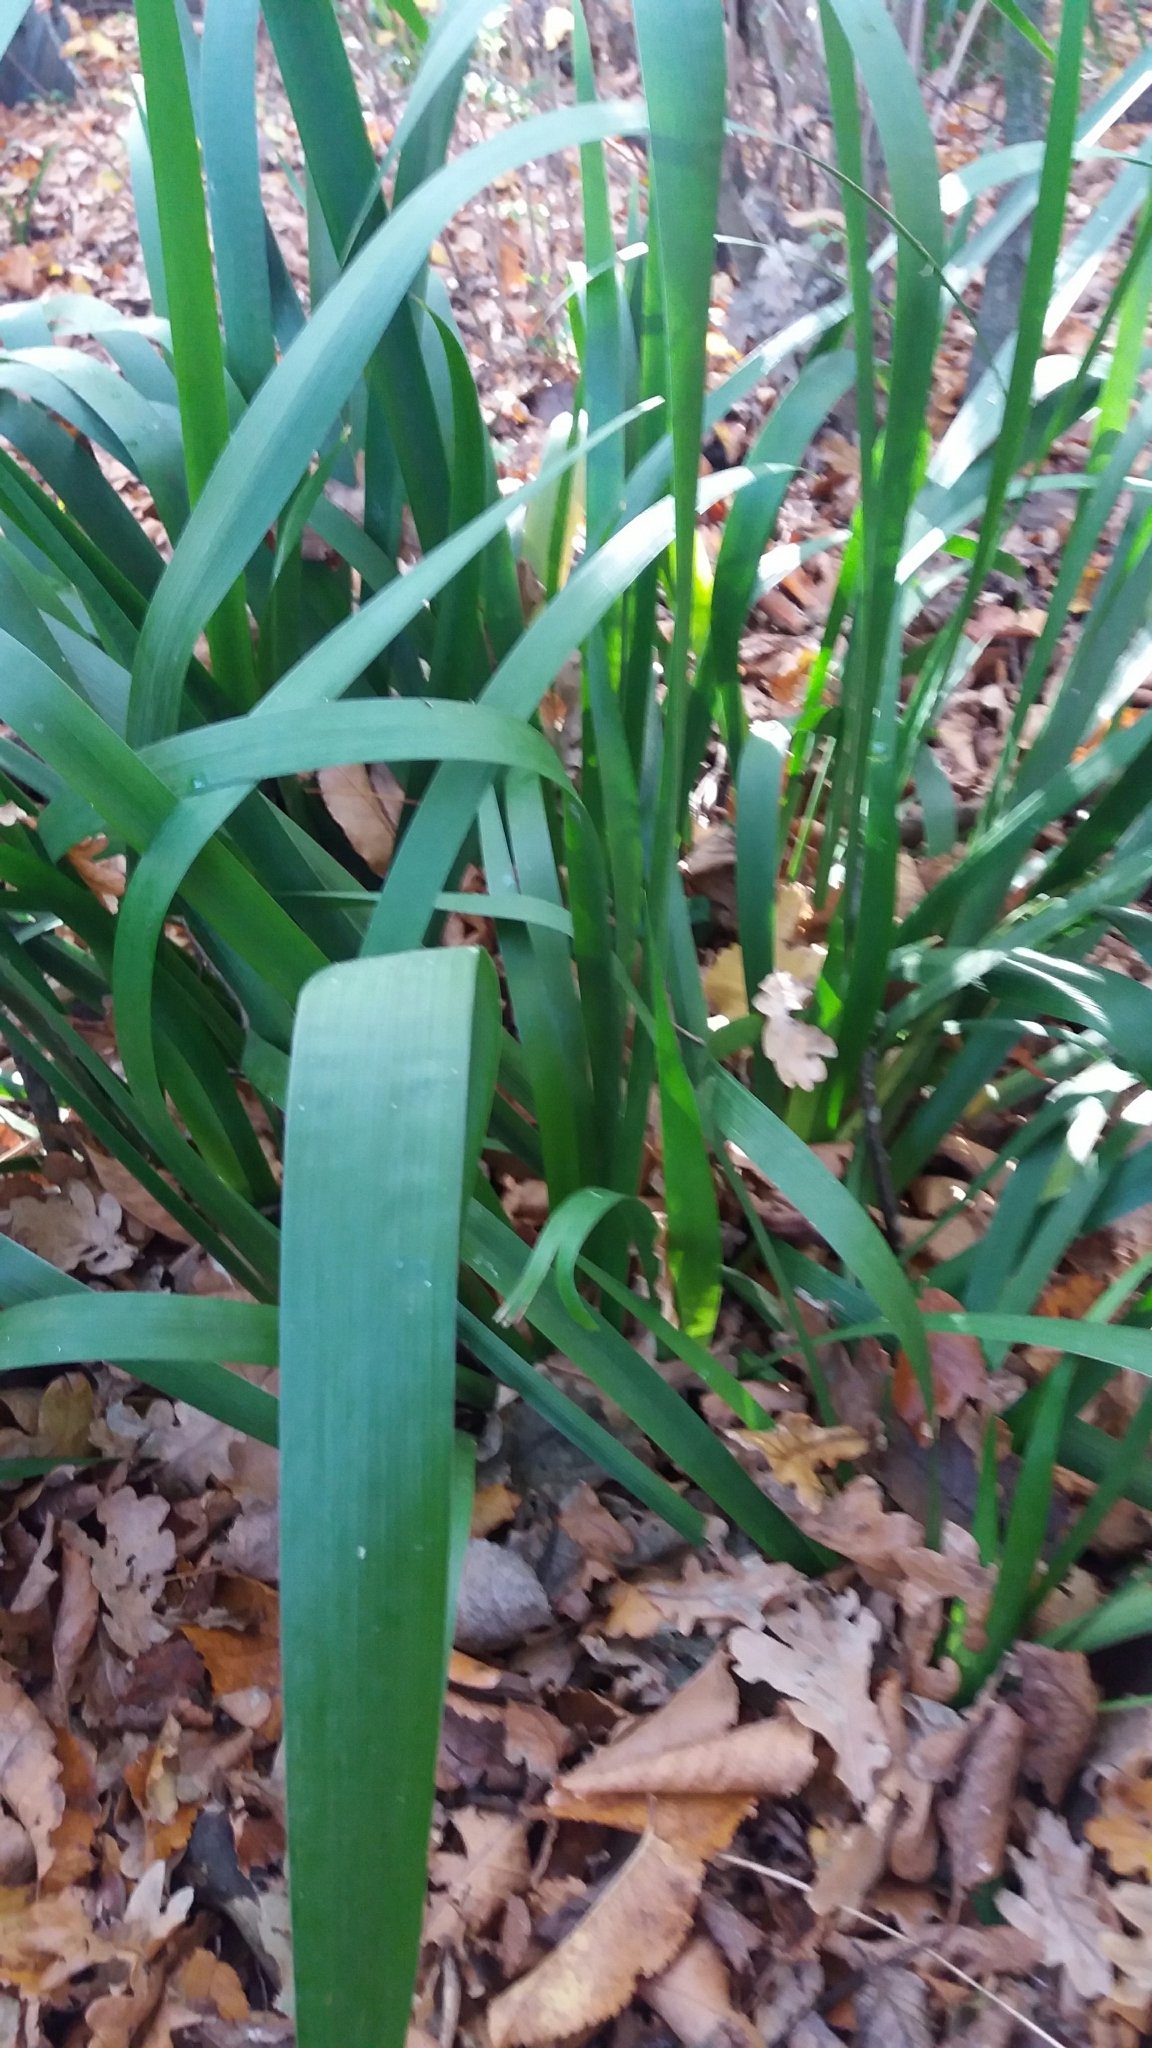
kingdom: Plantae
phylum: Tracheophyta
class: Liliopsida
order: Asparagales
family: Iridaceae
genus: Iris
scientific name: Iris foetidissima
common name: Stinking iris
